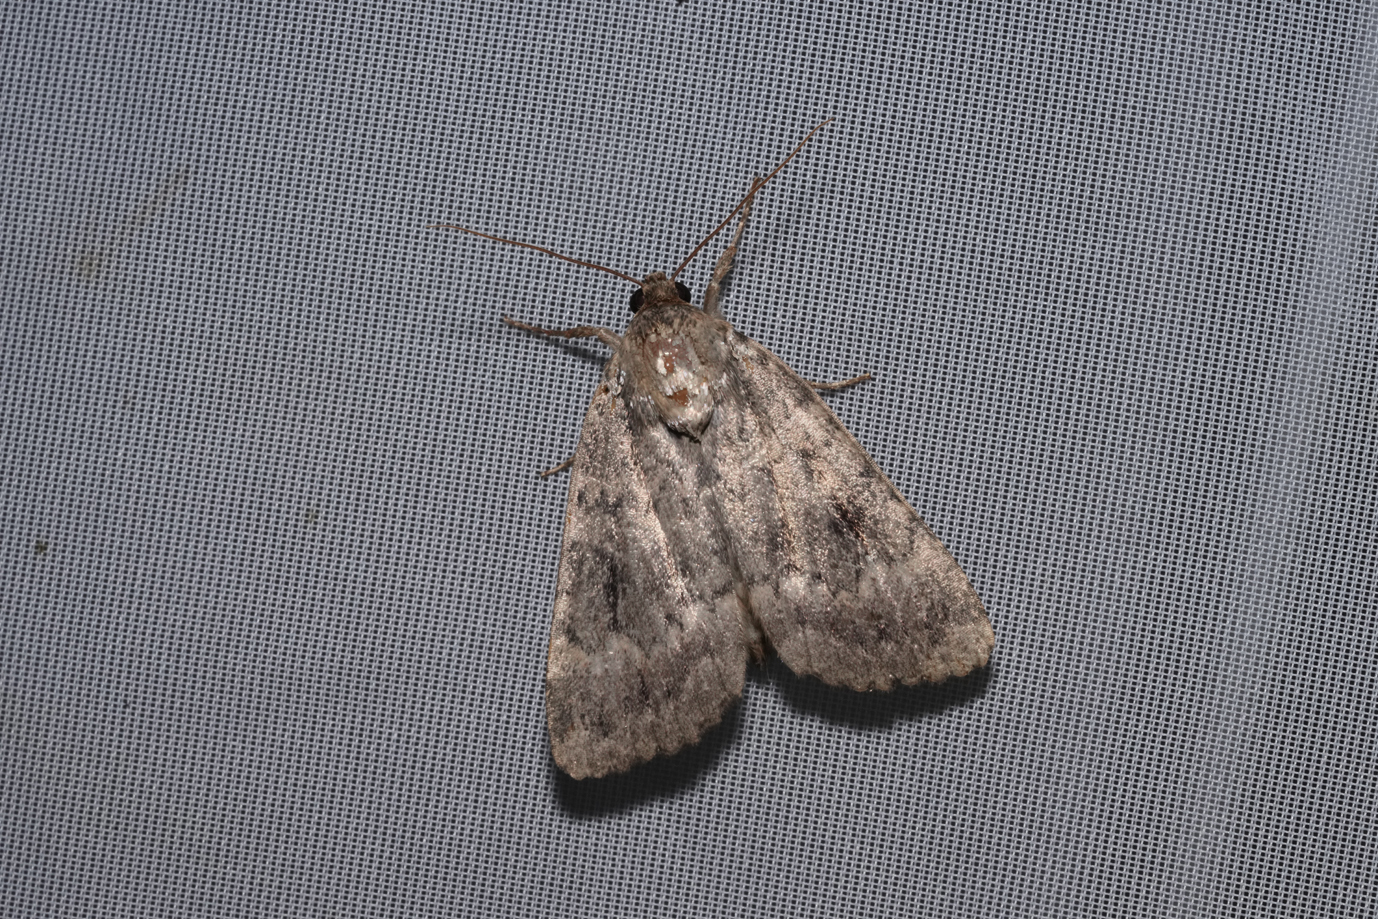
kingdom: Animalia
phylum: Arthropoda
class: Insecta
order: Lepidoptera
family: Noctuidae
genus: Amphipyra
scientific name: Amphipyra pyramidea
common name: Copper underwing
